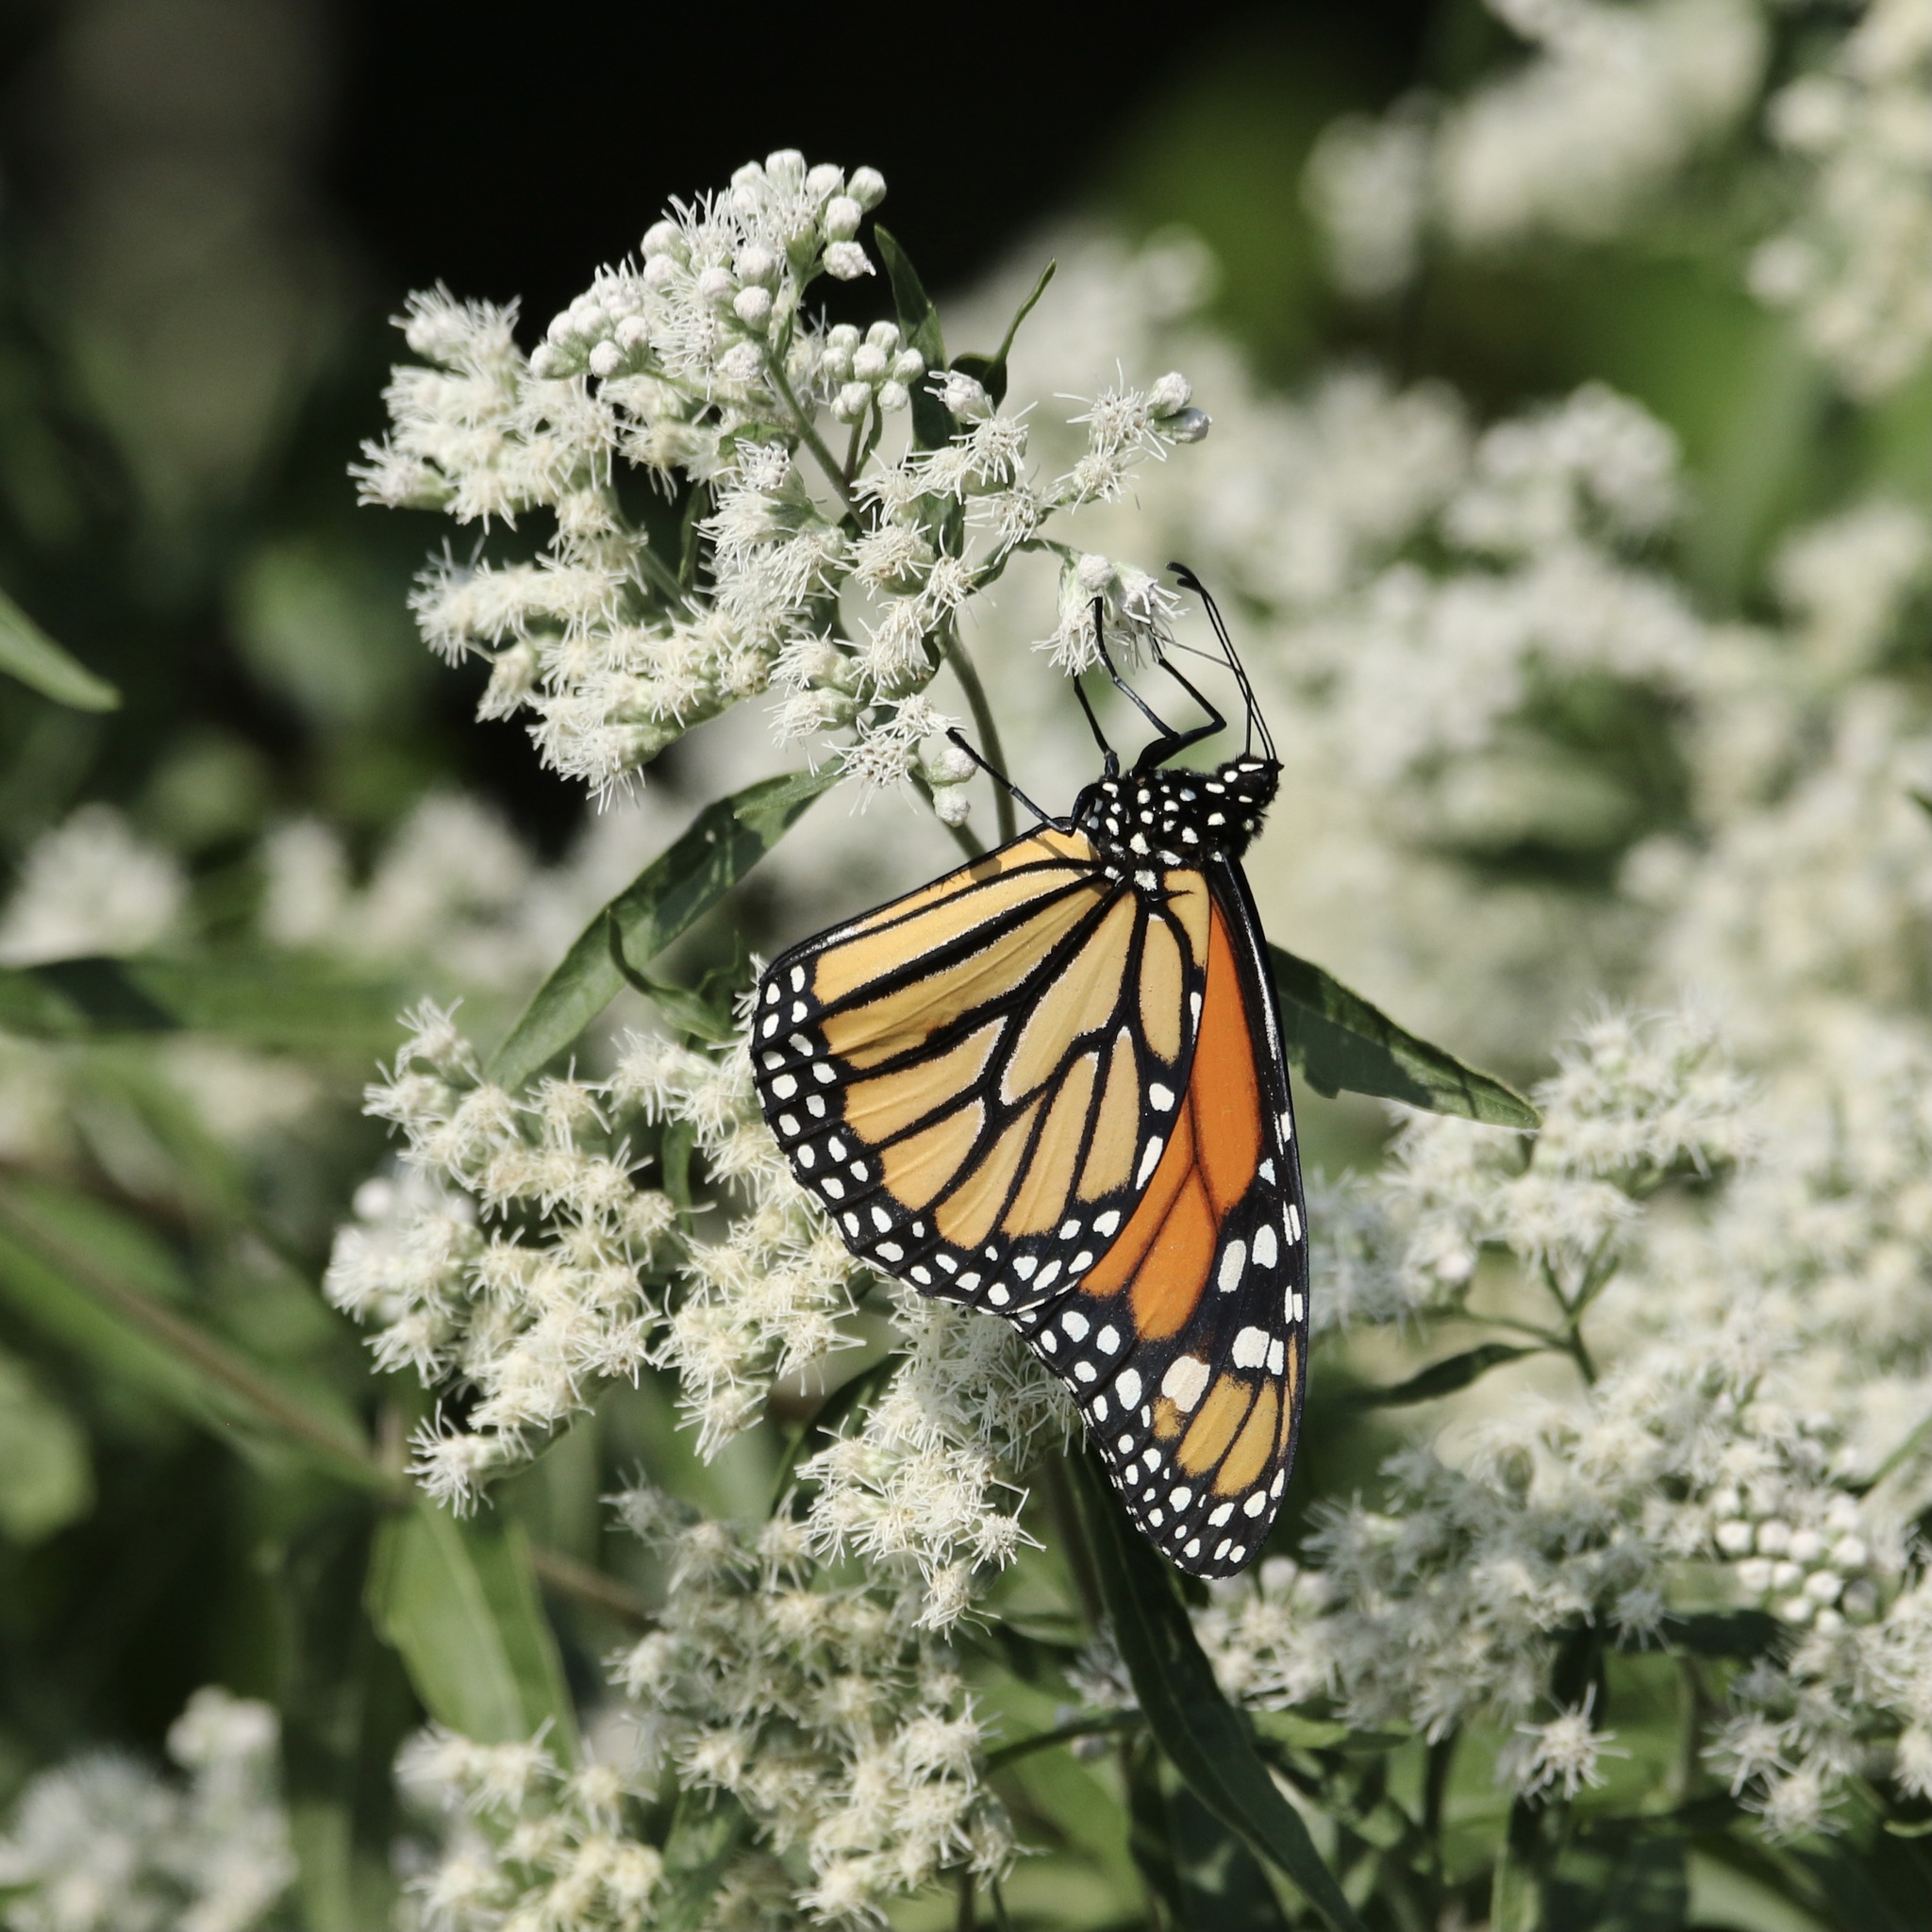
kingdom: Animalia
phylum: Arthropoda
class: Insecta
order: Lepidoptera
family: Nymphalidae
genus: Danaus
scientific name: Danaus plexippus
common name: Monarch
